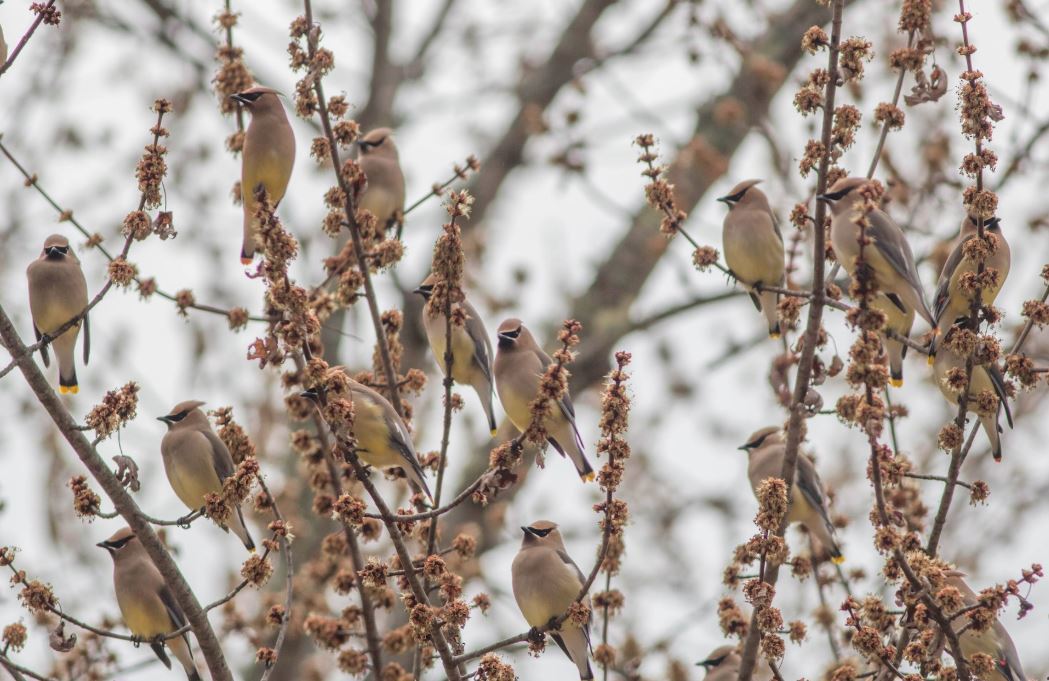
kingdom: Animalia
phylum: Chordata
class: Aves
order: Passeriformes
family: Bombycillidae
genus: Bombycilla
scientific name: Bombycilla cedrorum
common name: Cedar waxwing
